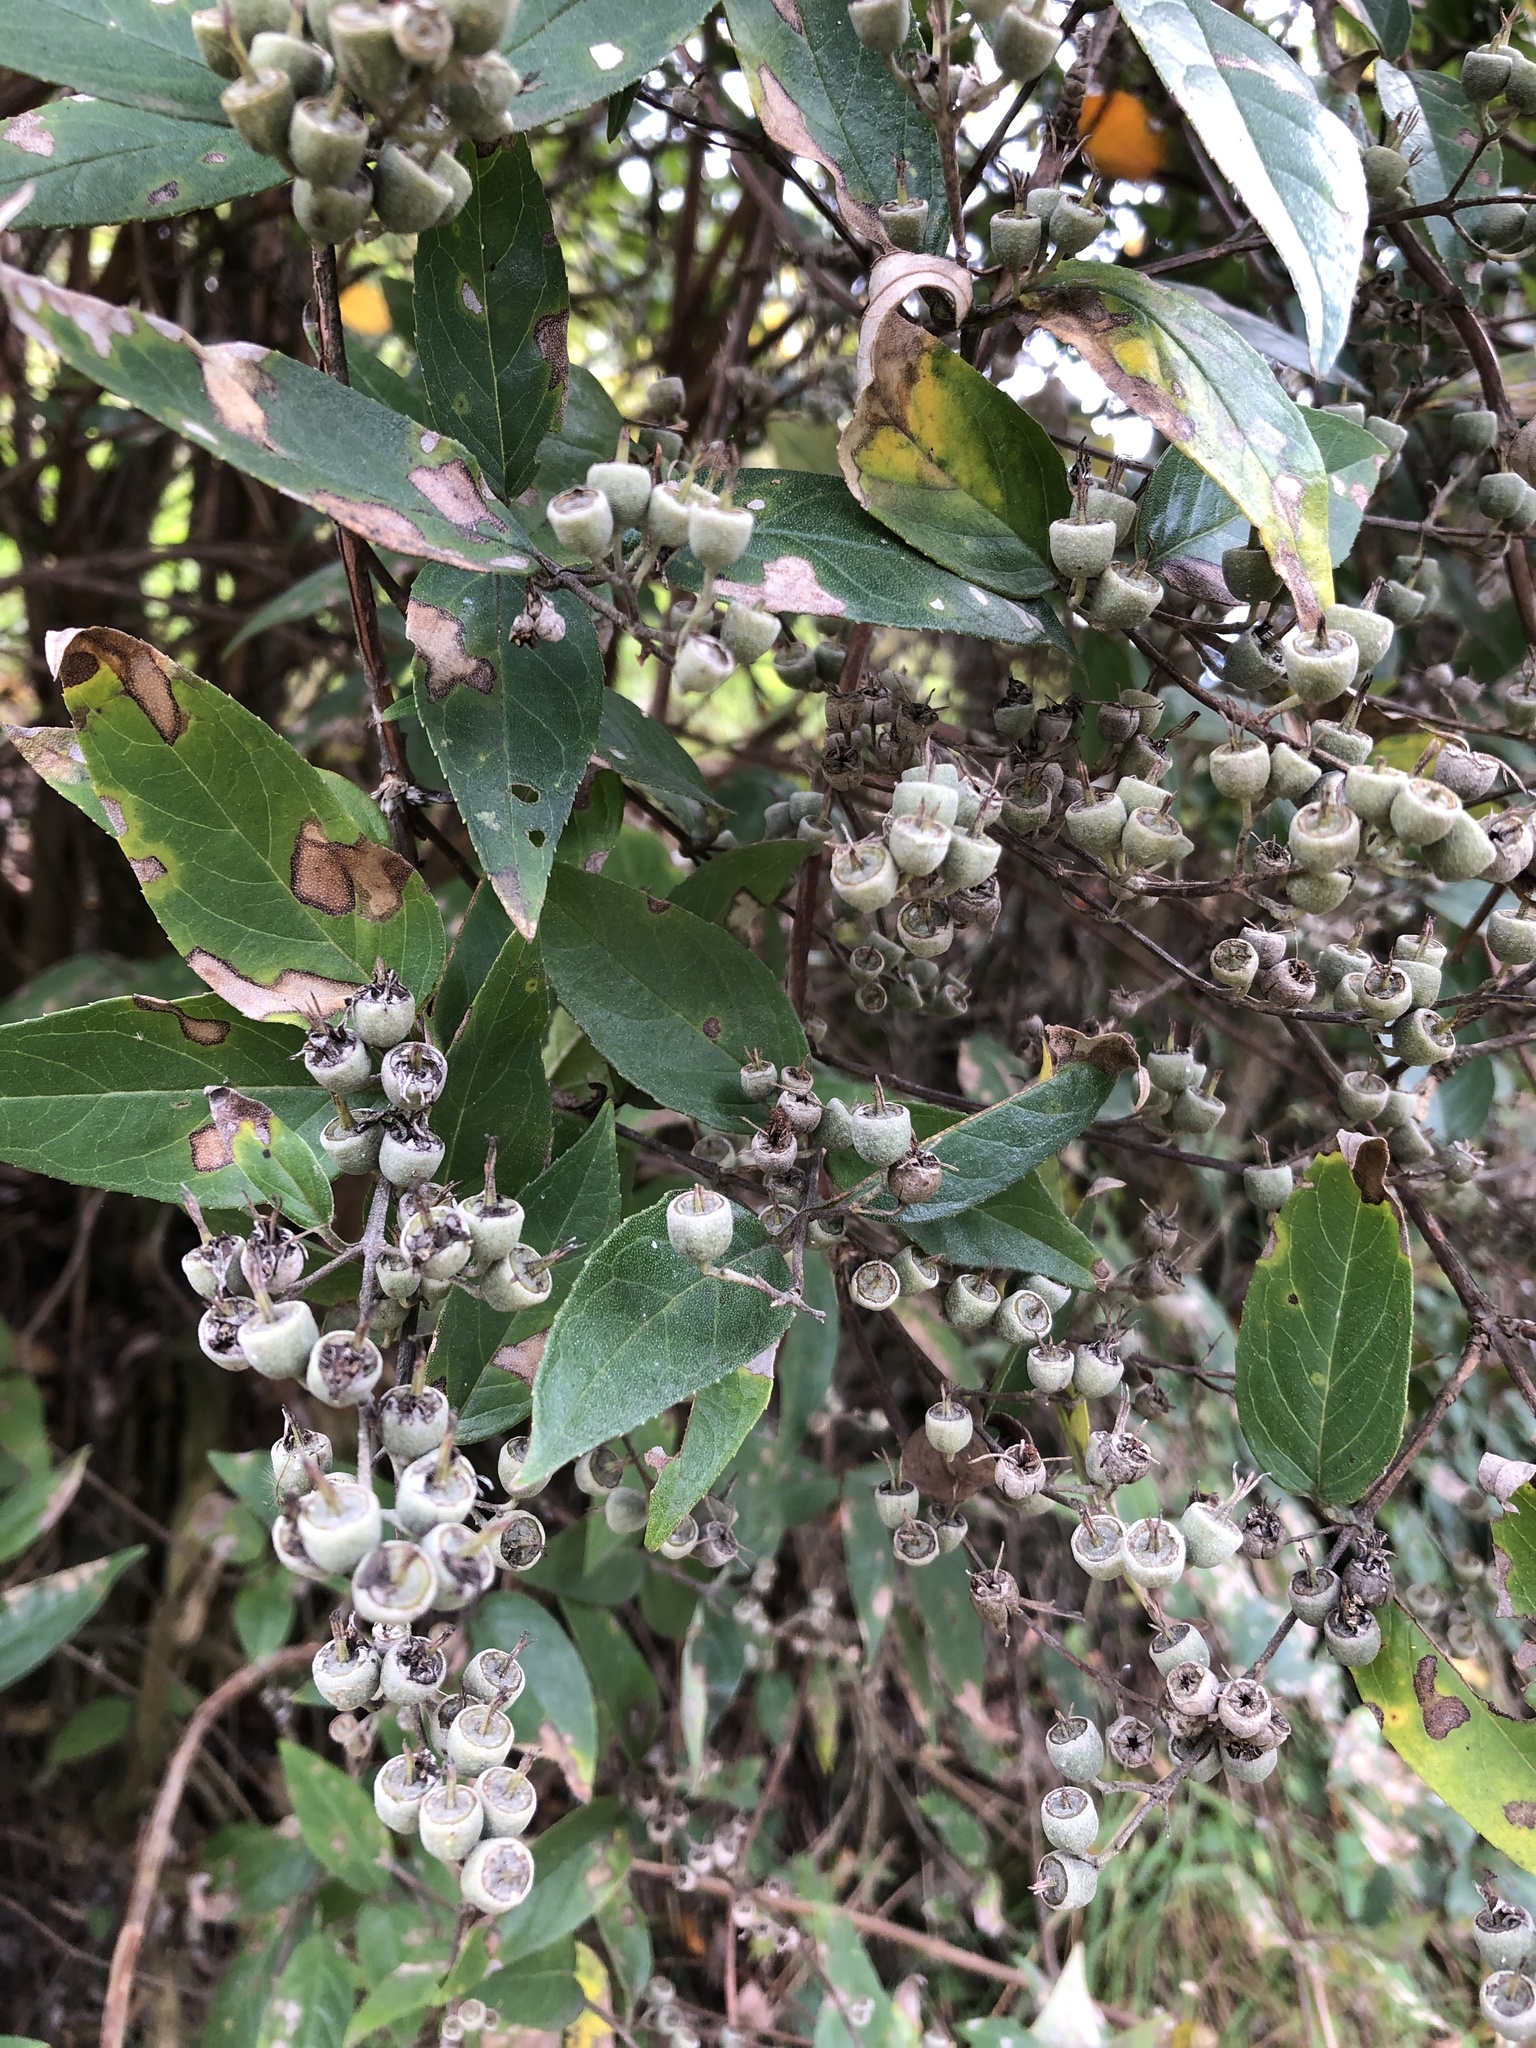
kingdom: Plantae
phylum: Tracheophyta
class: Magnoliopsida
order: Cornales
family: Hydrangeaceae
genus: Deutzia
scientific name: Deutzia pulchra
